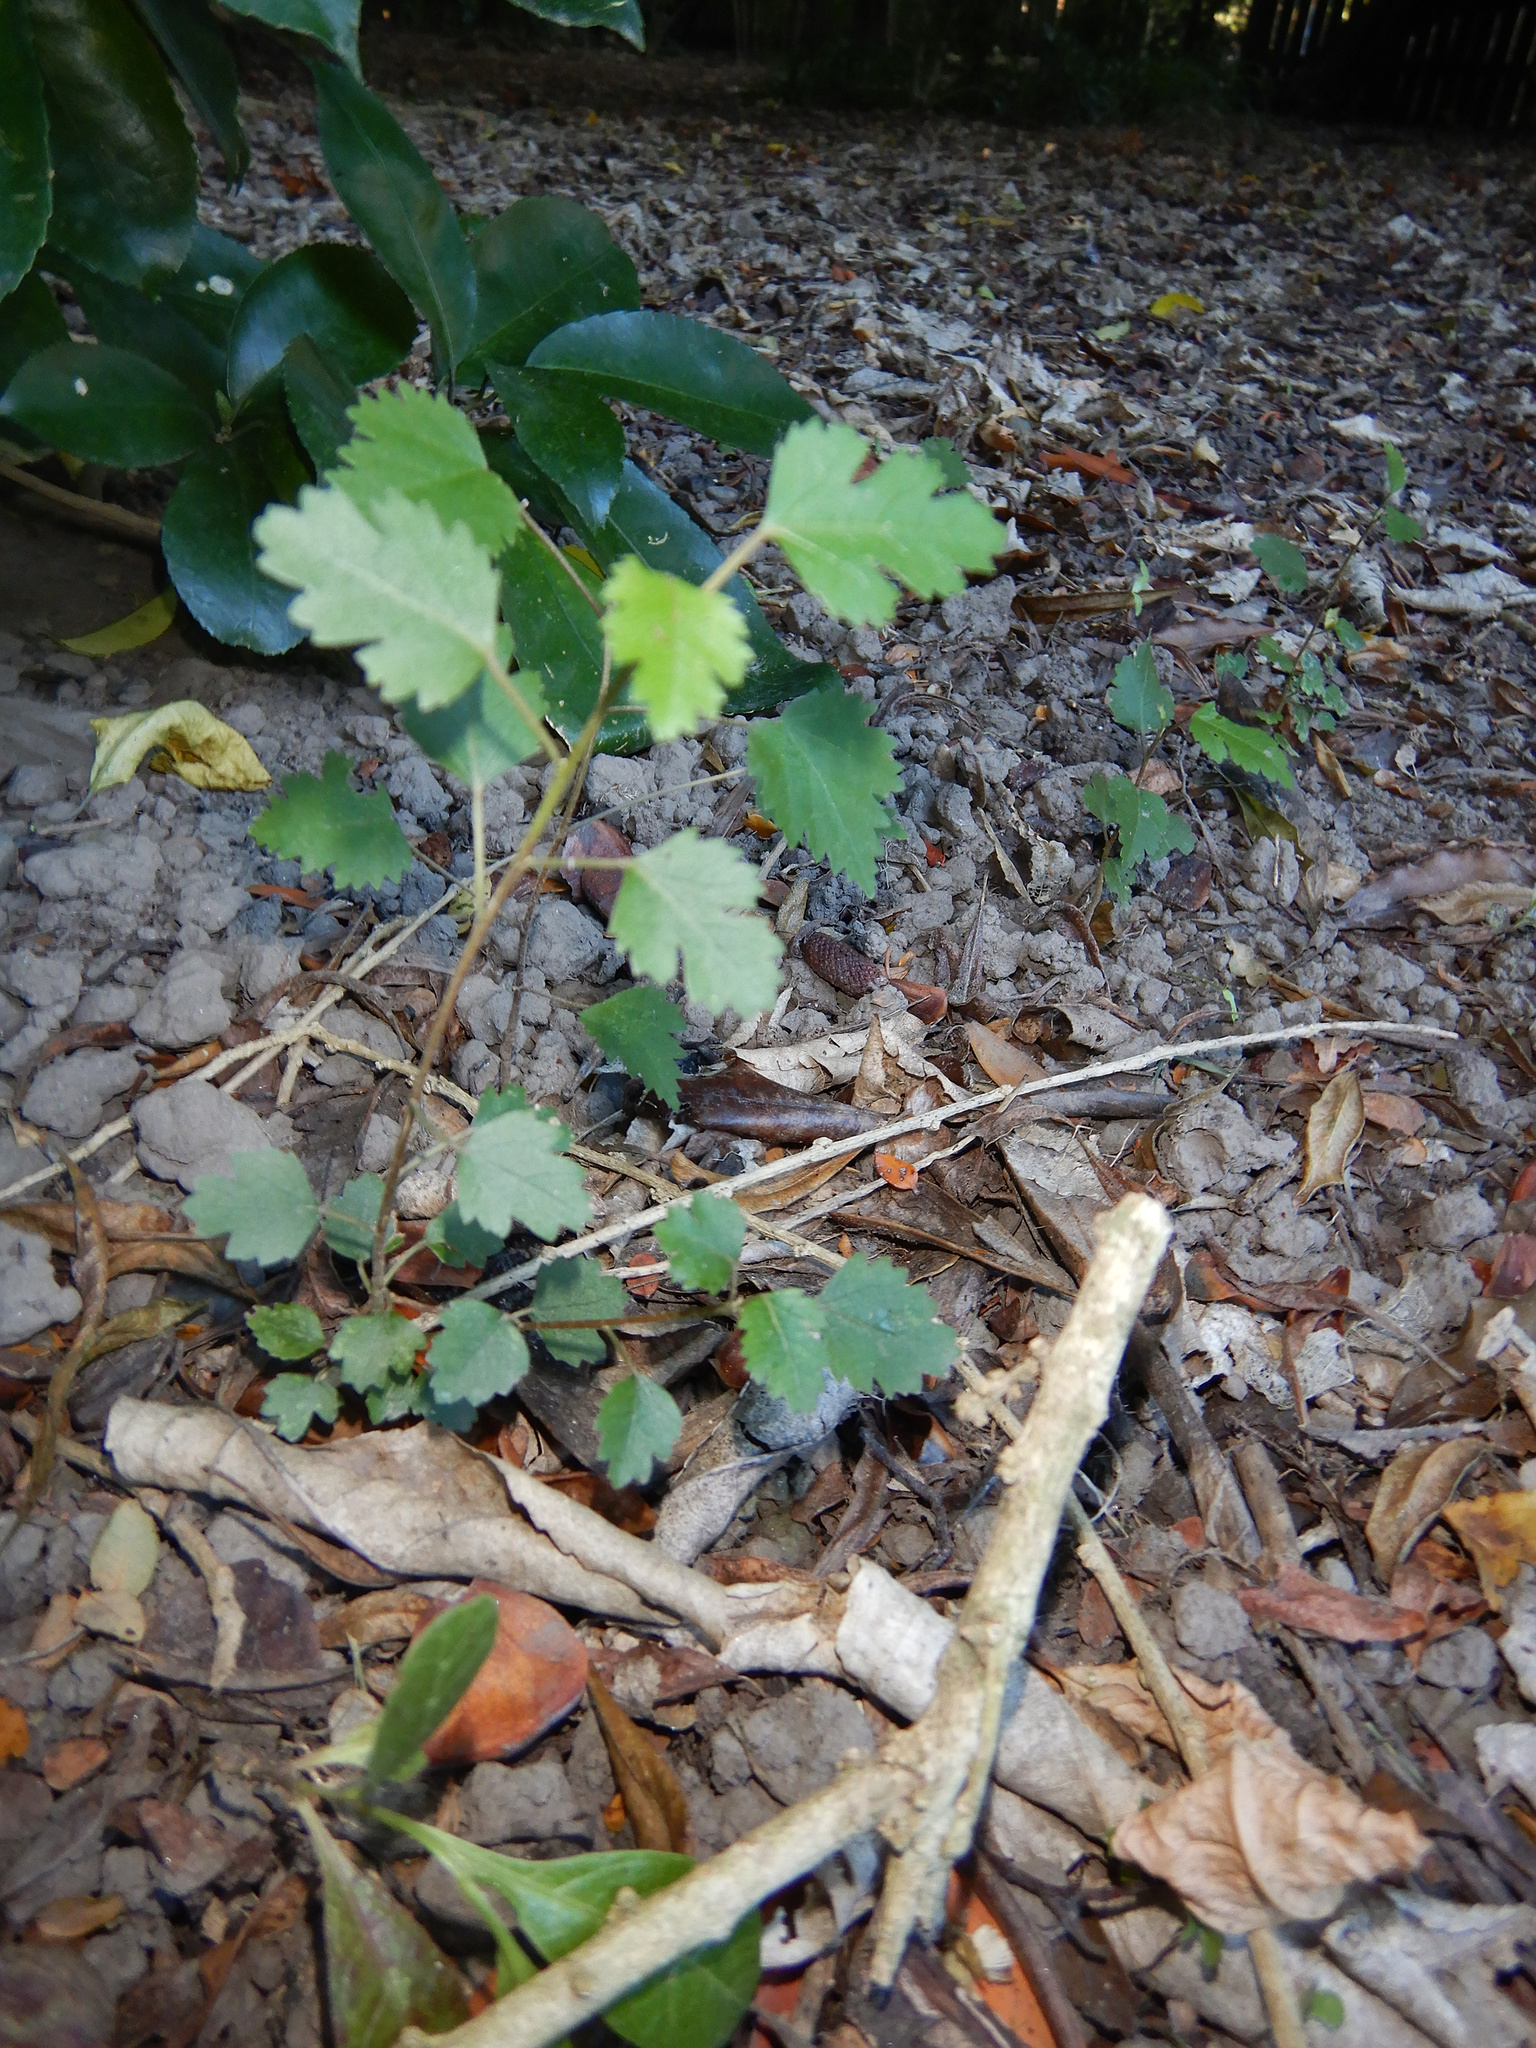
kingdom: Plantae
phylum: Tracheophyta
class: Magnoliopsida
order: Malvales
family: Malvaceae
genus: Plagianthus
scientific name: Plagianthus regius
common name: Manatu
